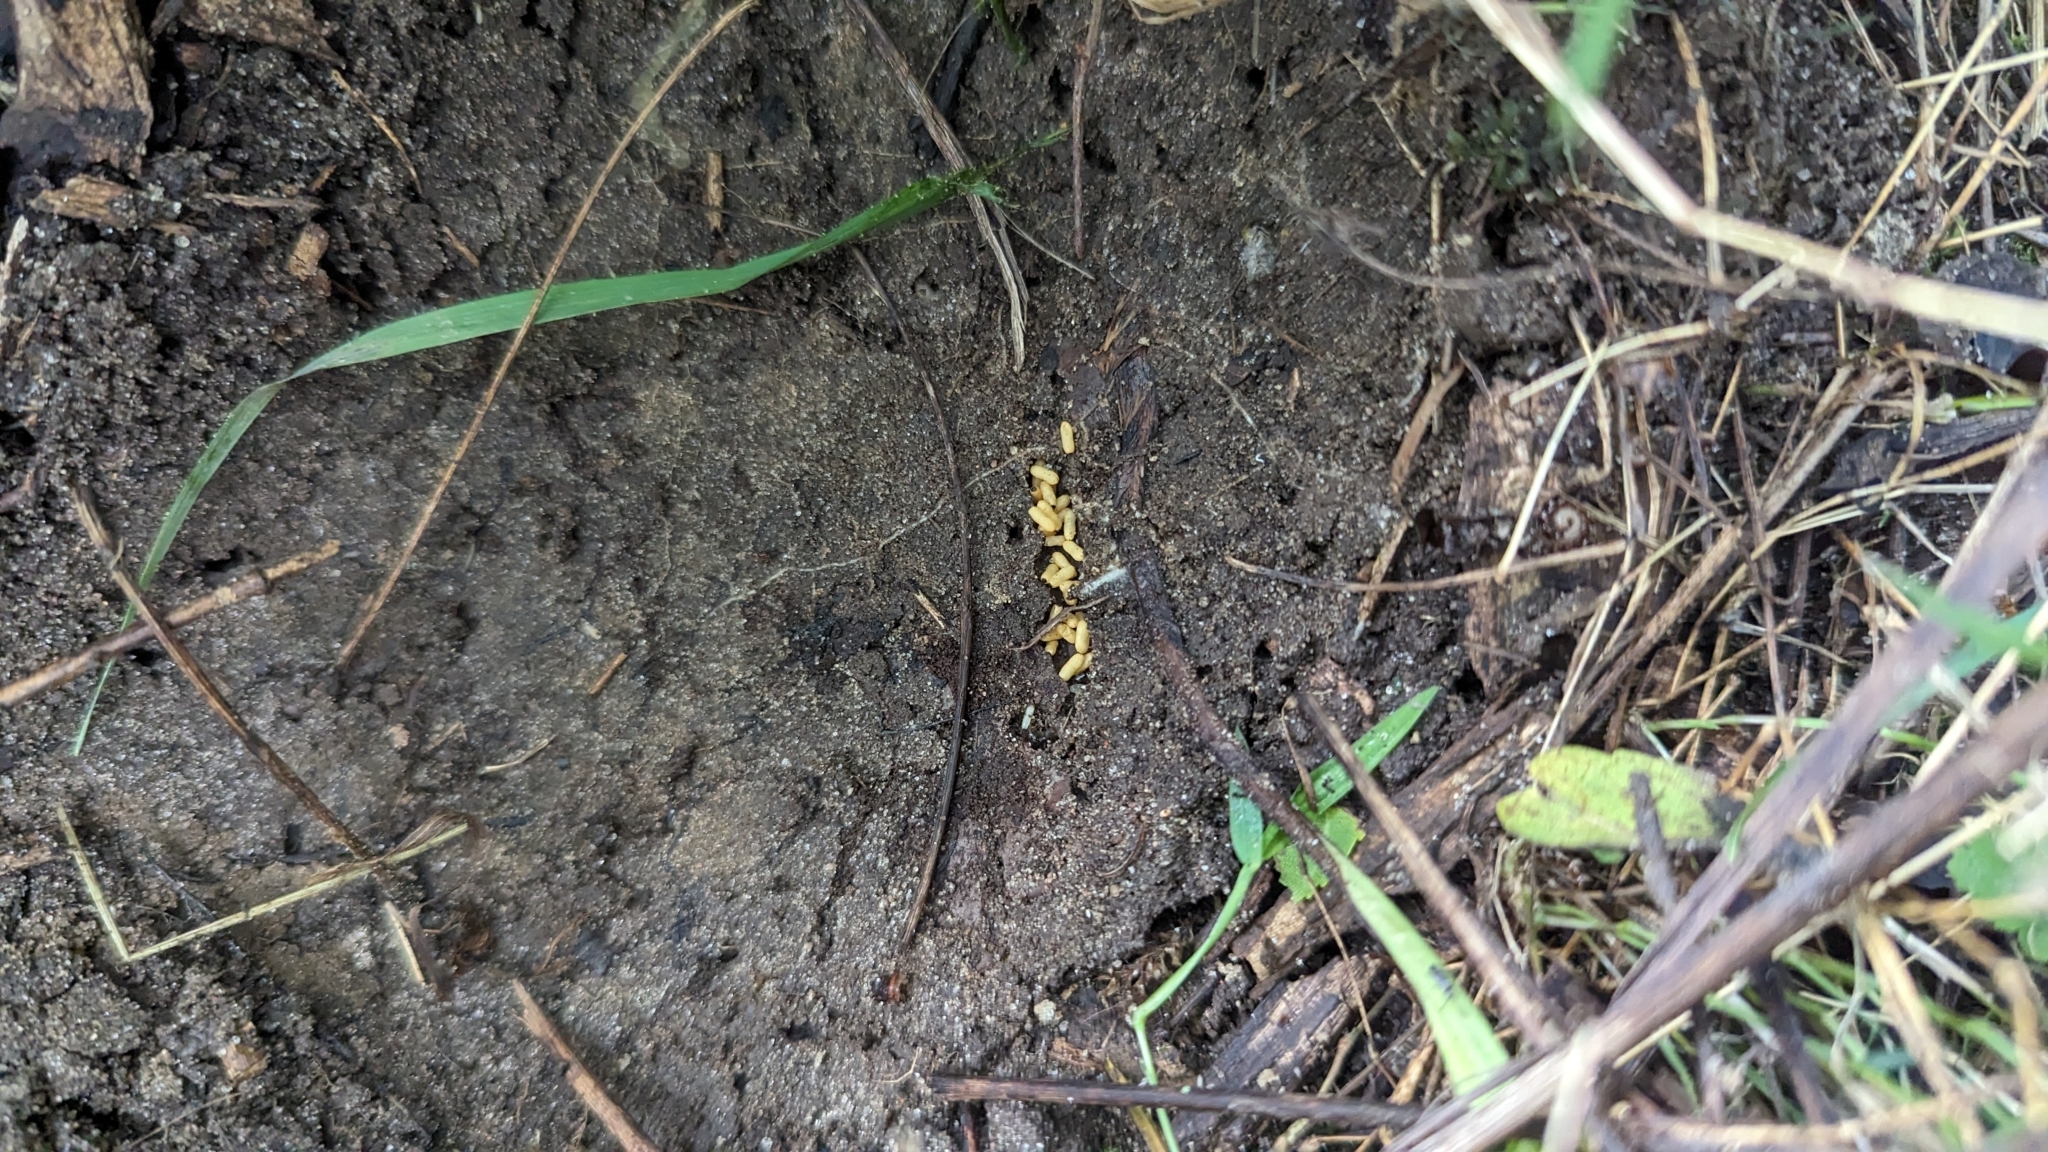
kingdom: Animalia
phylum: Arthropoda
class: Insecta
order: Hymenoptera
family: Formicidae
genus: Ponera
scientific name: Ponera pennsylvanica
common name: Pennsylvania ponera
